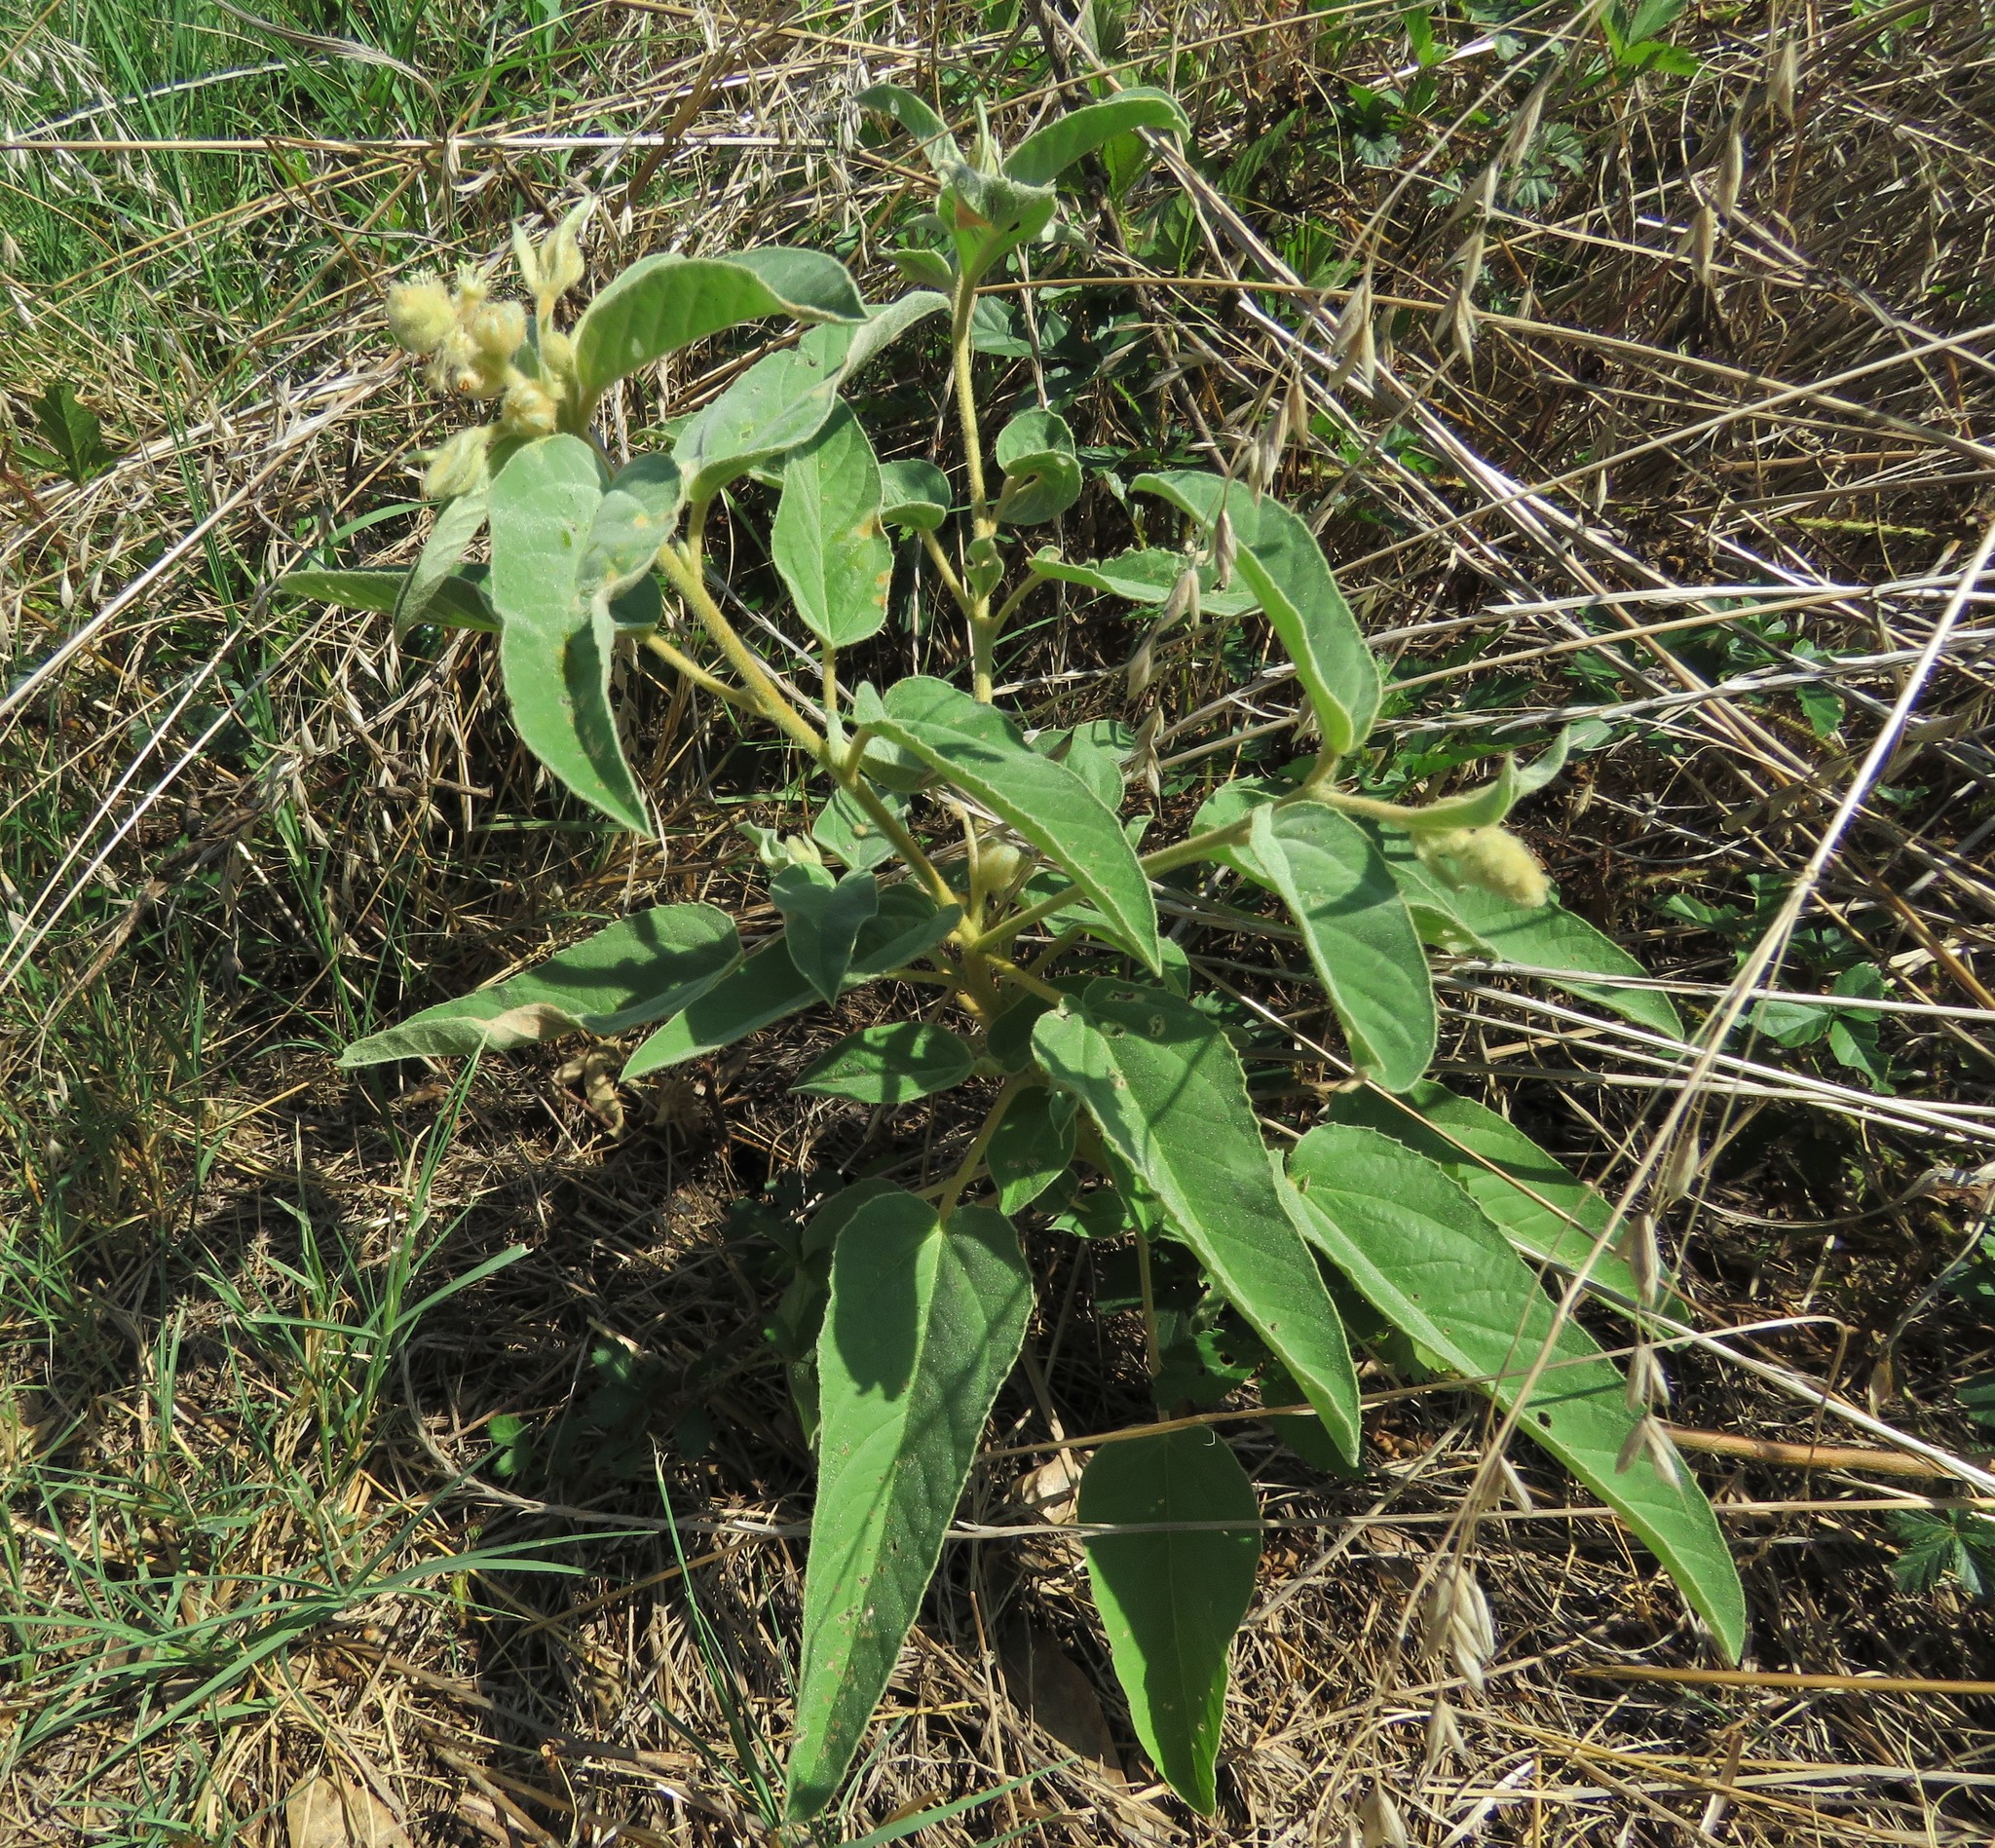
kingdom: Plantae
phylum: Tracheophyta
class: Magnoliopsida
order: Malpighiales
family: Euphorbiaceae
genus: Croton
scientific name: Croton lindheimeri
